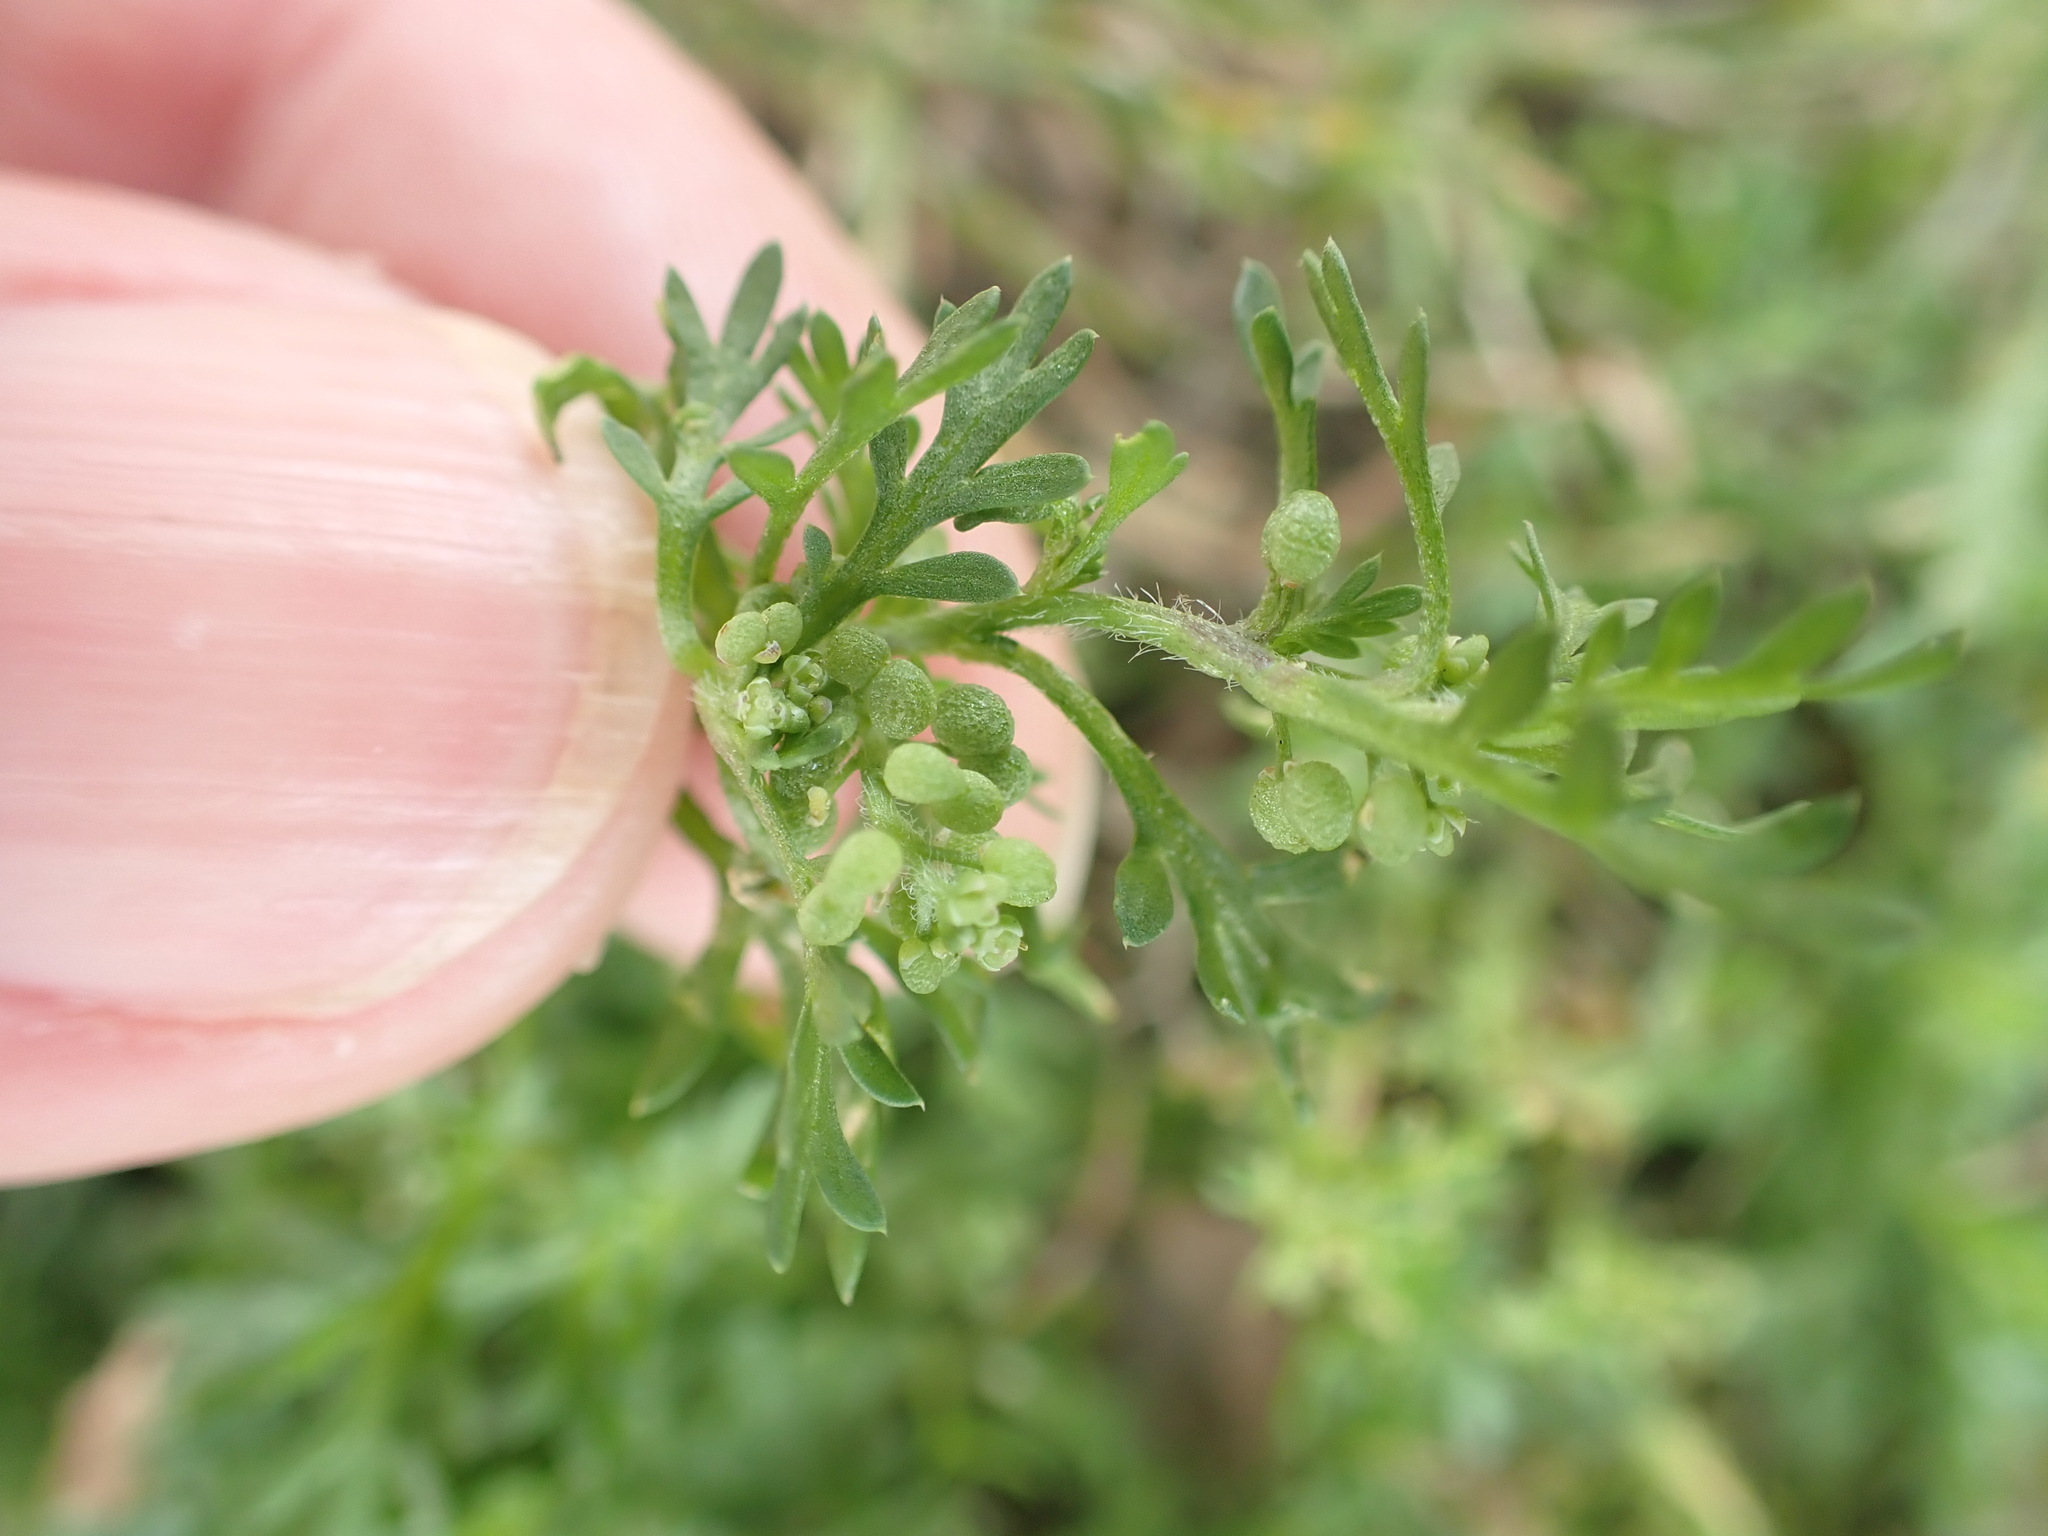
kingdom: Plantae
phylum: Tracheophyta
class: Magnoliopsida
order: Brassicales
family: Brassicaceae
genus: Lepidium
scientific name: Lepidium didymum
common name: Lesser swinecress
